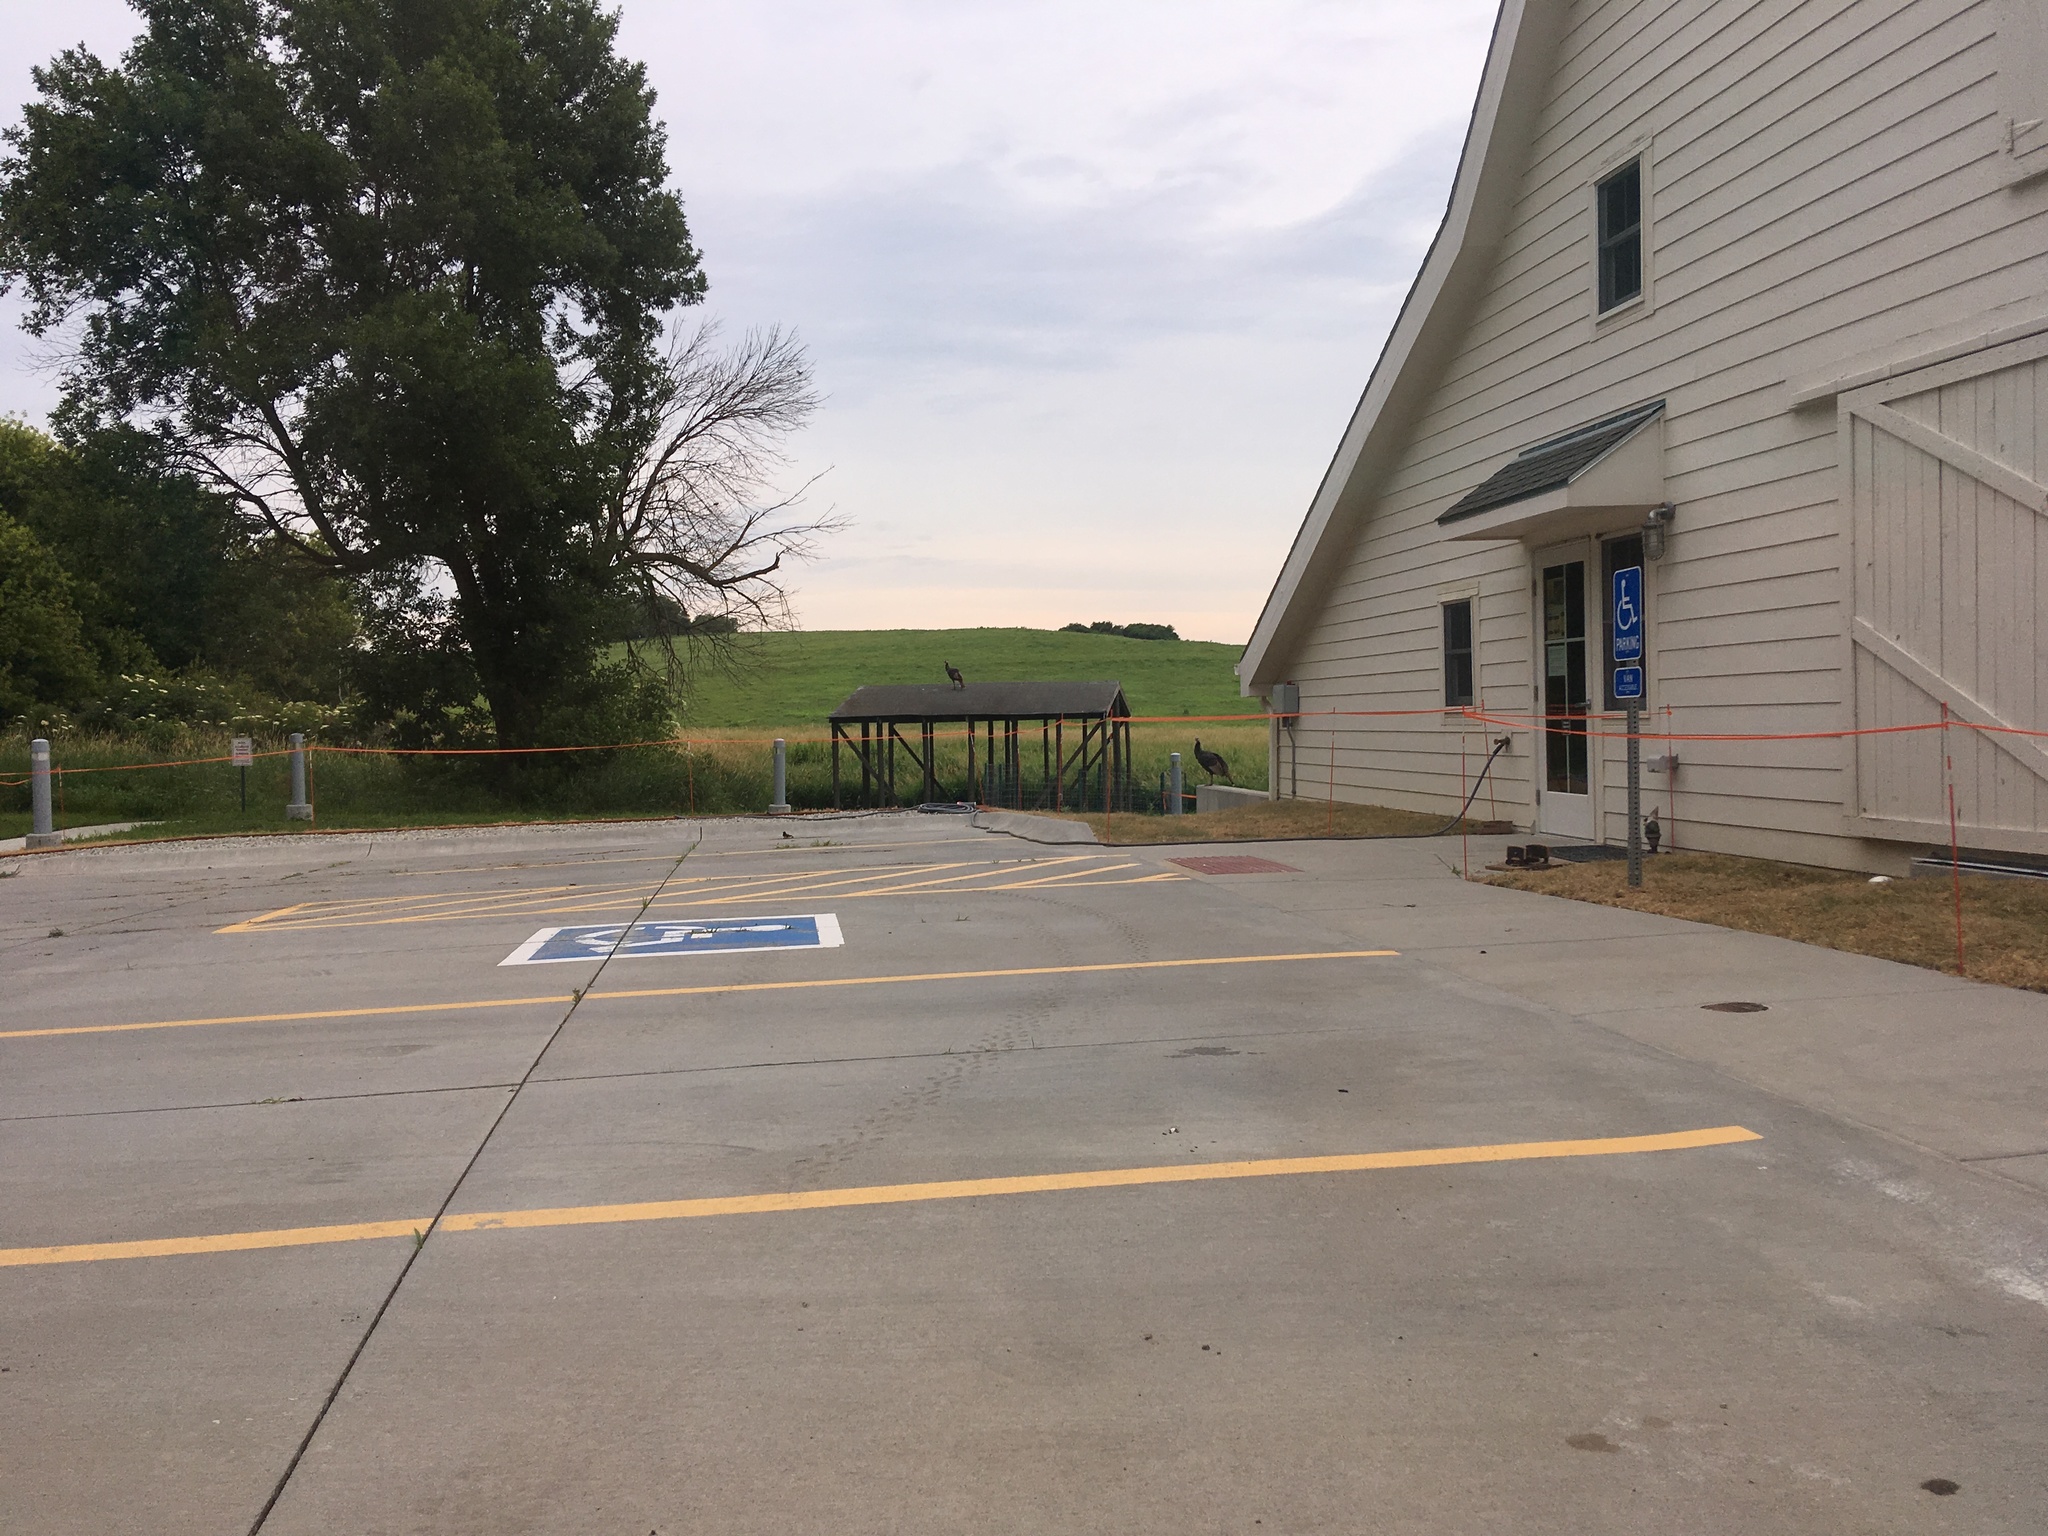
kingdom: Animalia
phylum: Chordata
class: Aves
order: Galliformes
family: Phasianidae
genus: Meleagris
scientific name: Meleagris gallopavo
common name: Wild turkey
